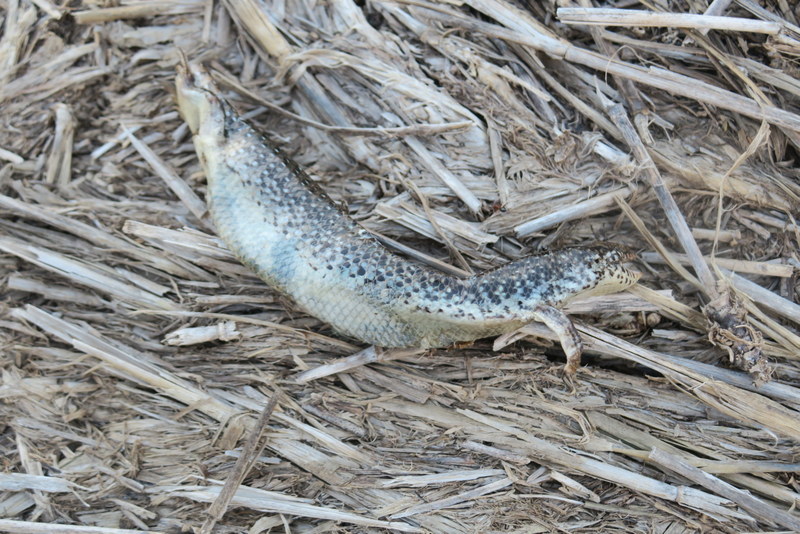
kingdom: Animalia
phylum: Chordata
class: Squamata
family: Scincidae
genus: Chalcides
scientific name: Chalcides ocellatus
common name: Ocellated skink
